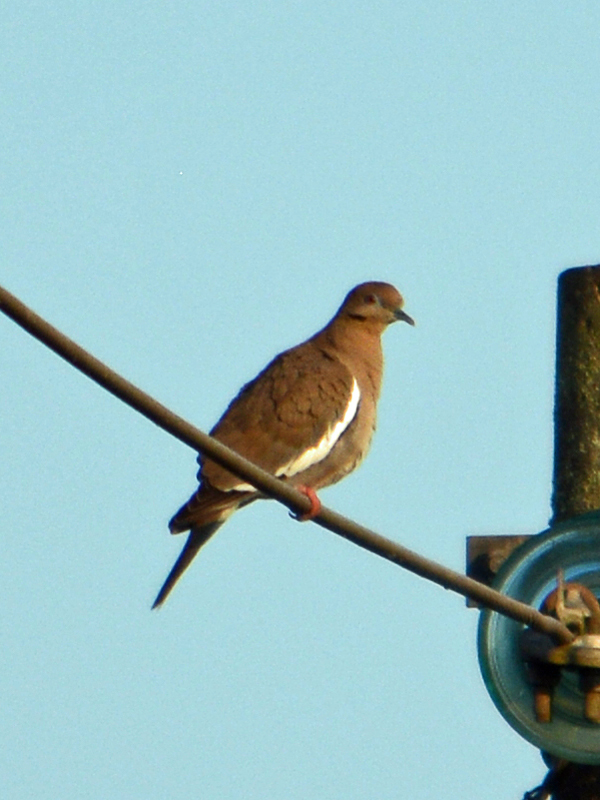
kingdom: Animalia
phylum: Chordata
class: Aves
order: Columbiformes
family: Columbidae
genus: Zenaida
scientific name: Zenaida asiatica
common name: White-winged dove
